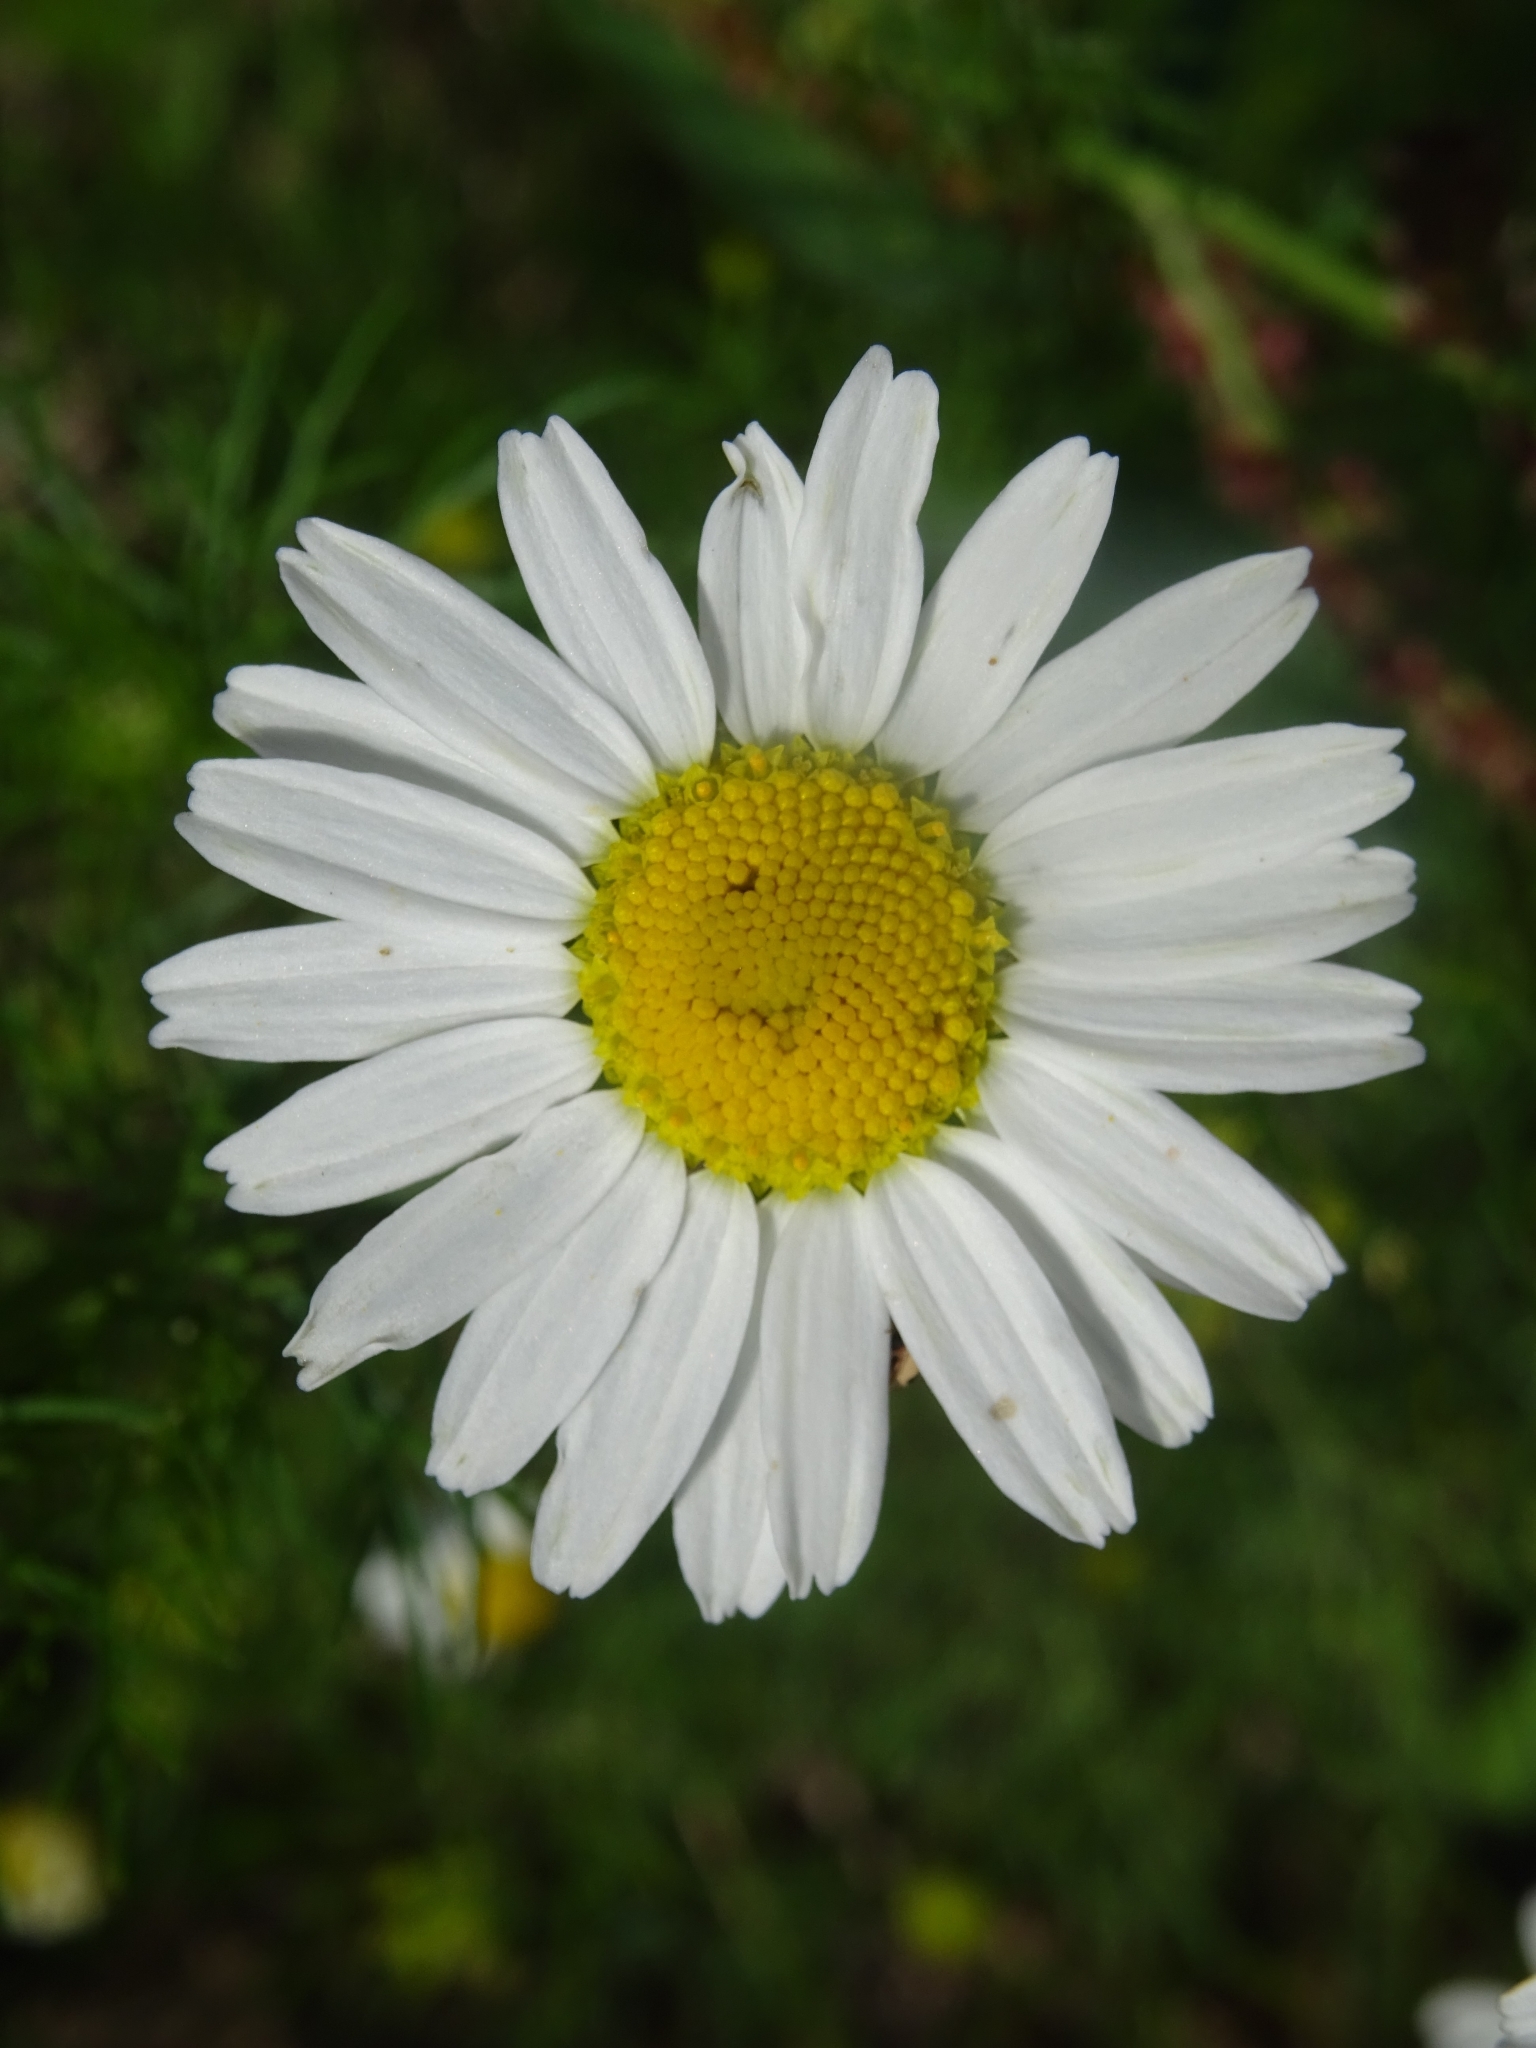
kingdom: Plantae
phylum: Tracheophyta
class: Magnoliopsida
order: Asterales
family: Asteraceae
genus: Tripleurospermum
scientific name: Tripleurospermum inodorum
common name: Scentless mayweed
